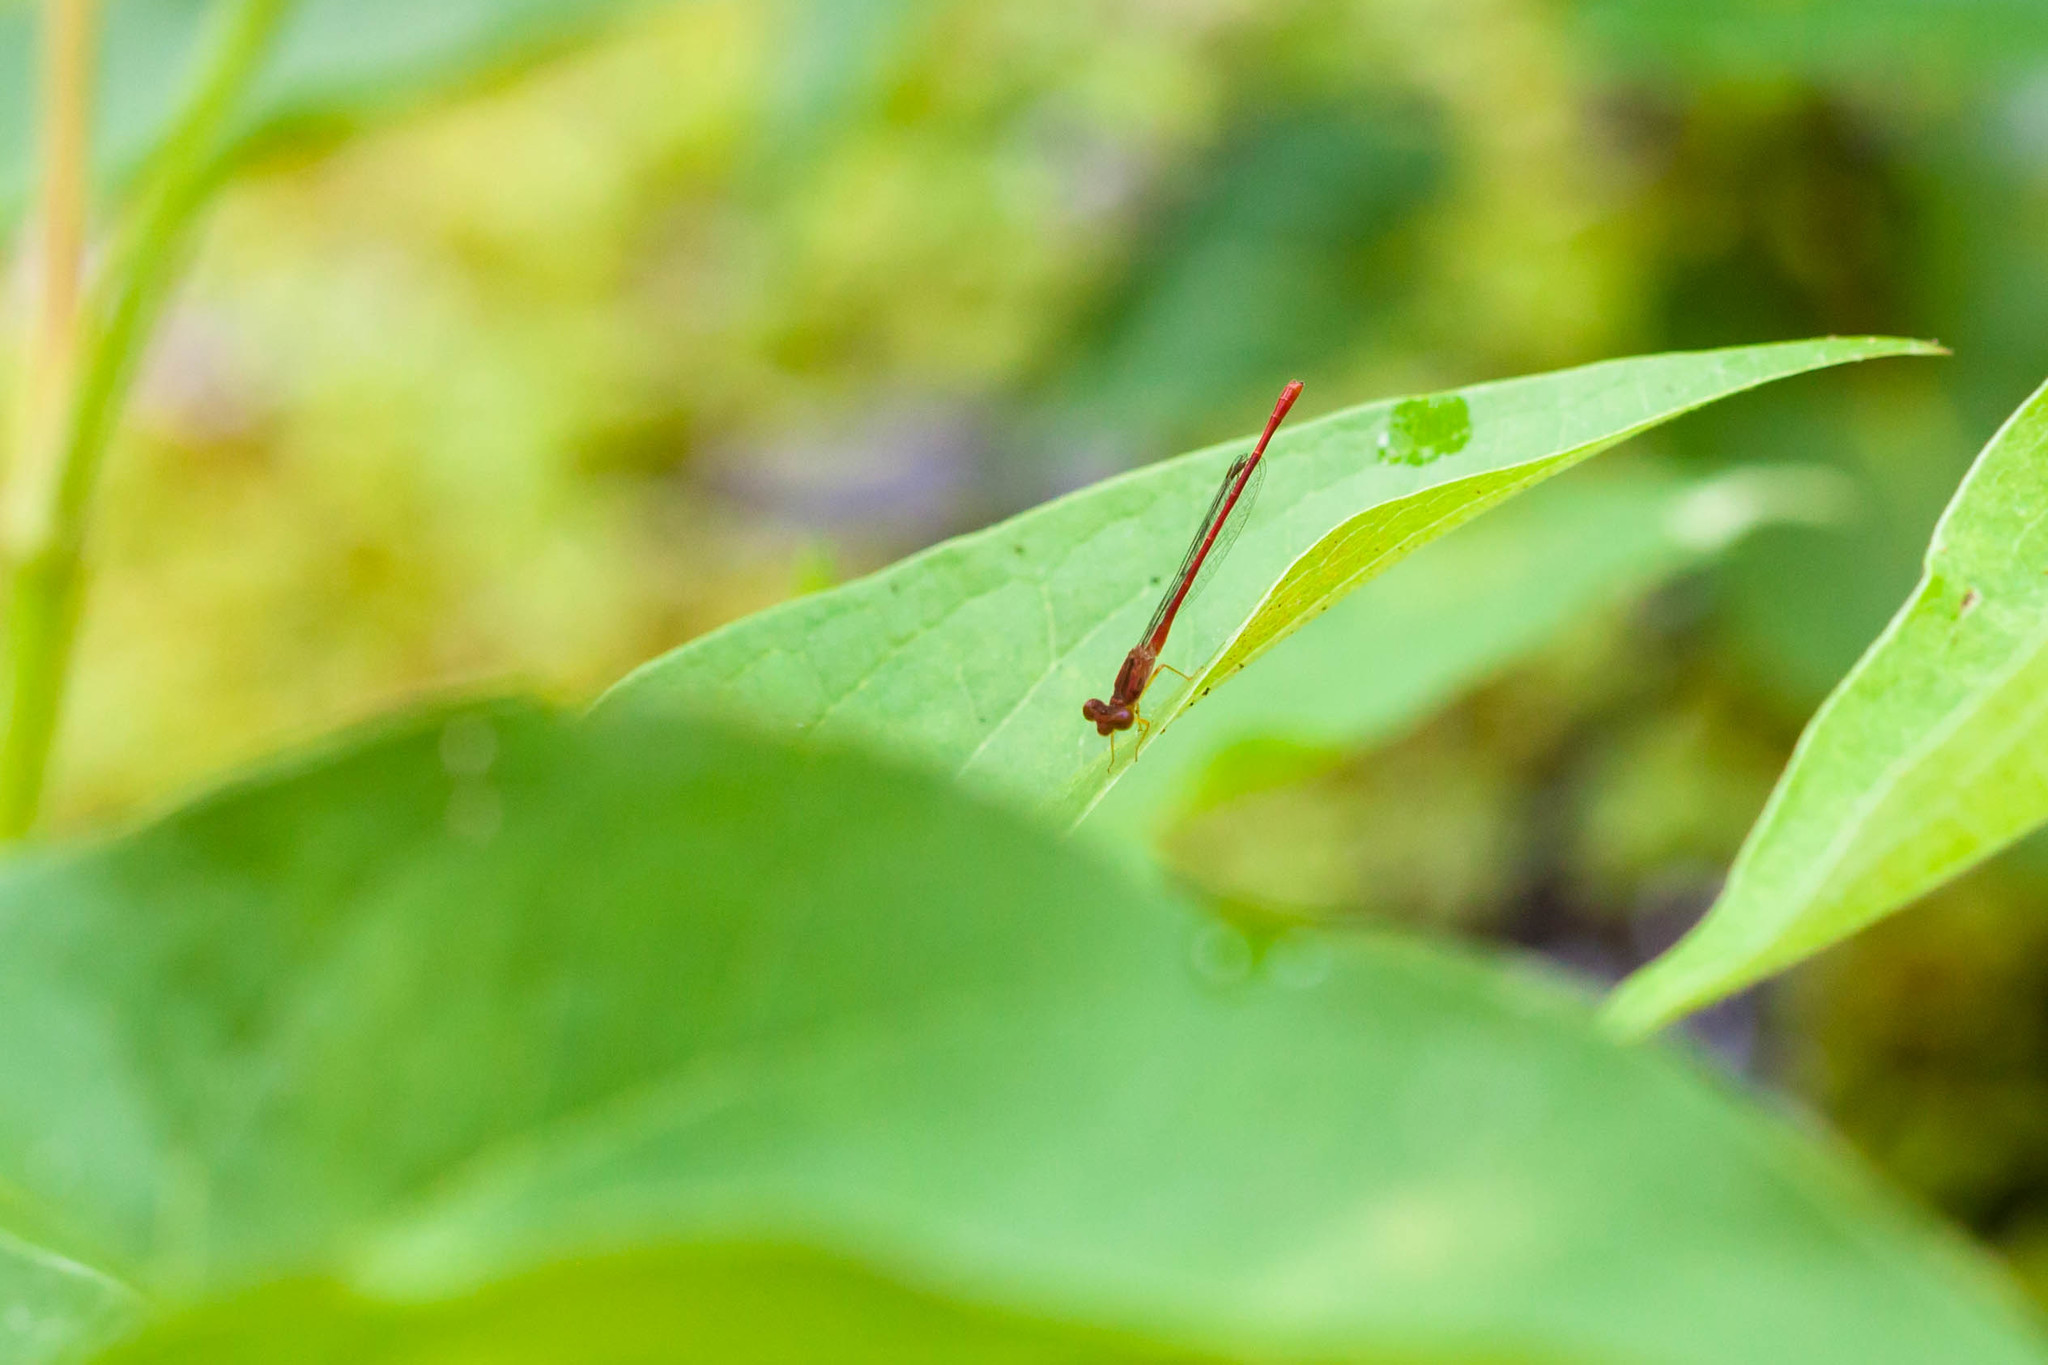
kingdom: Animalia
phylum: Arthropoda
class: Insecta
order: Odonata
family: Coenagrionidae
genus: Telebasis
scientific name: Telebasis byersi
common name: Duckweed firetail
